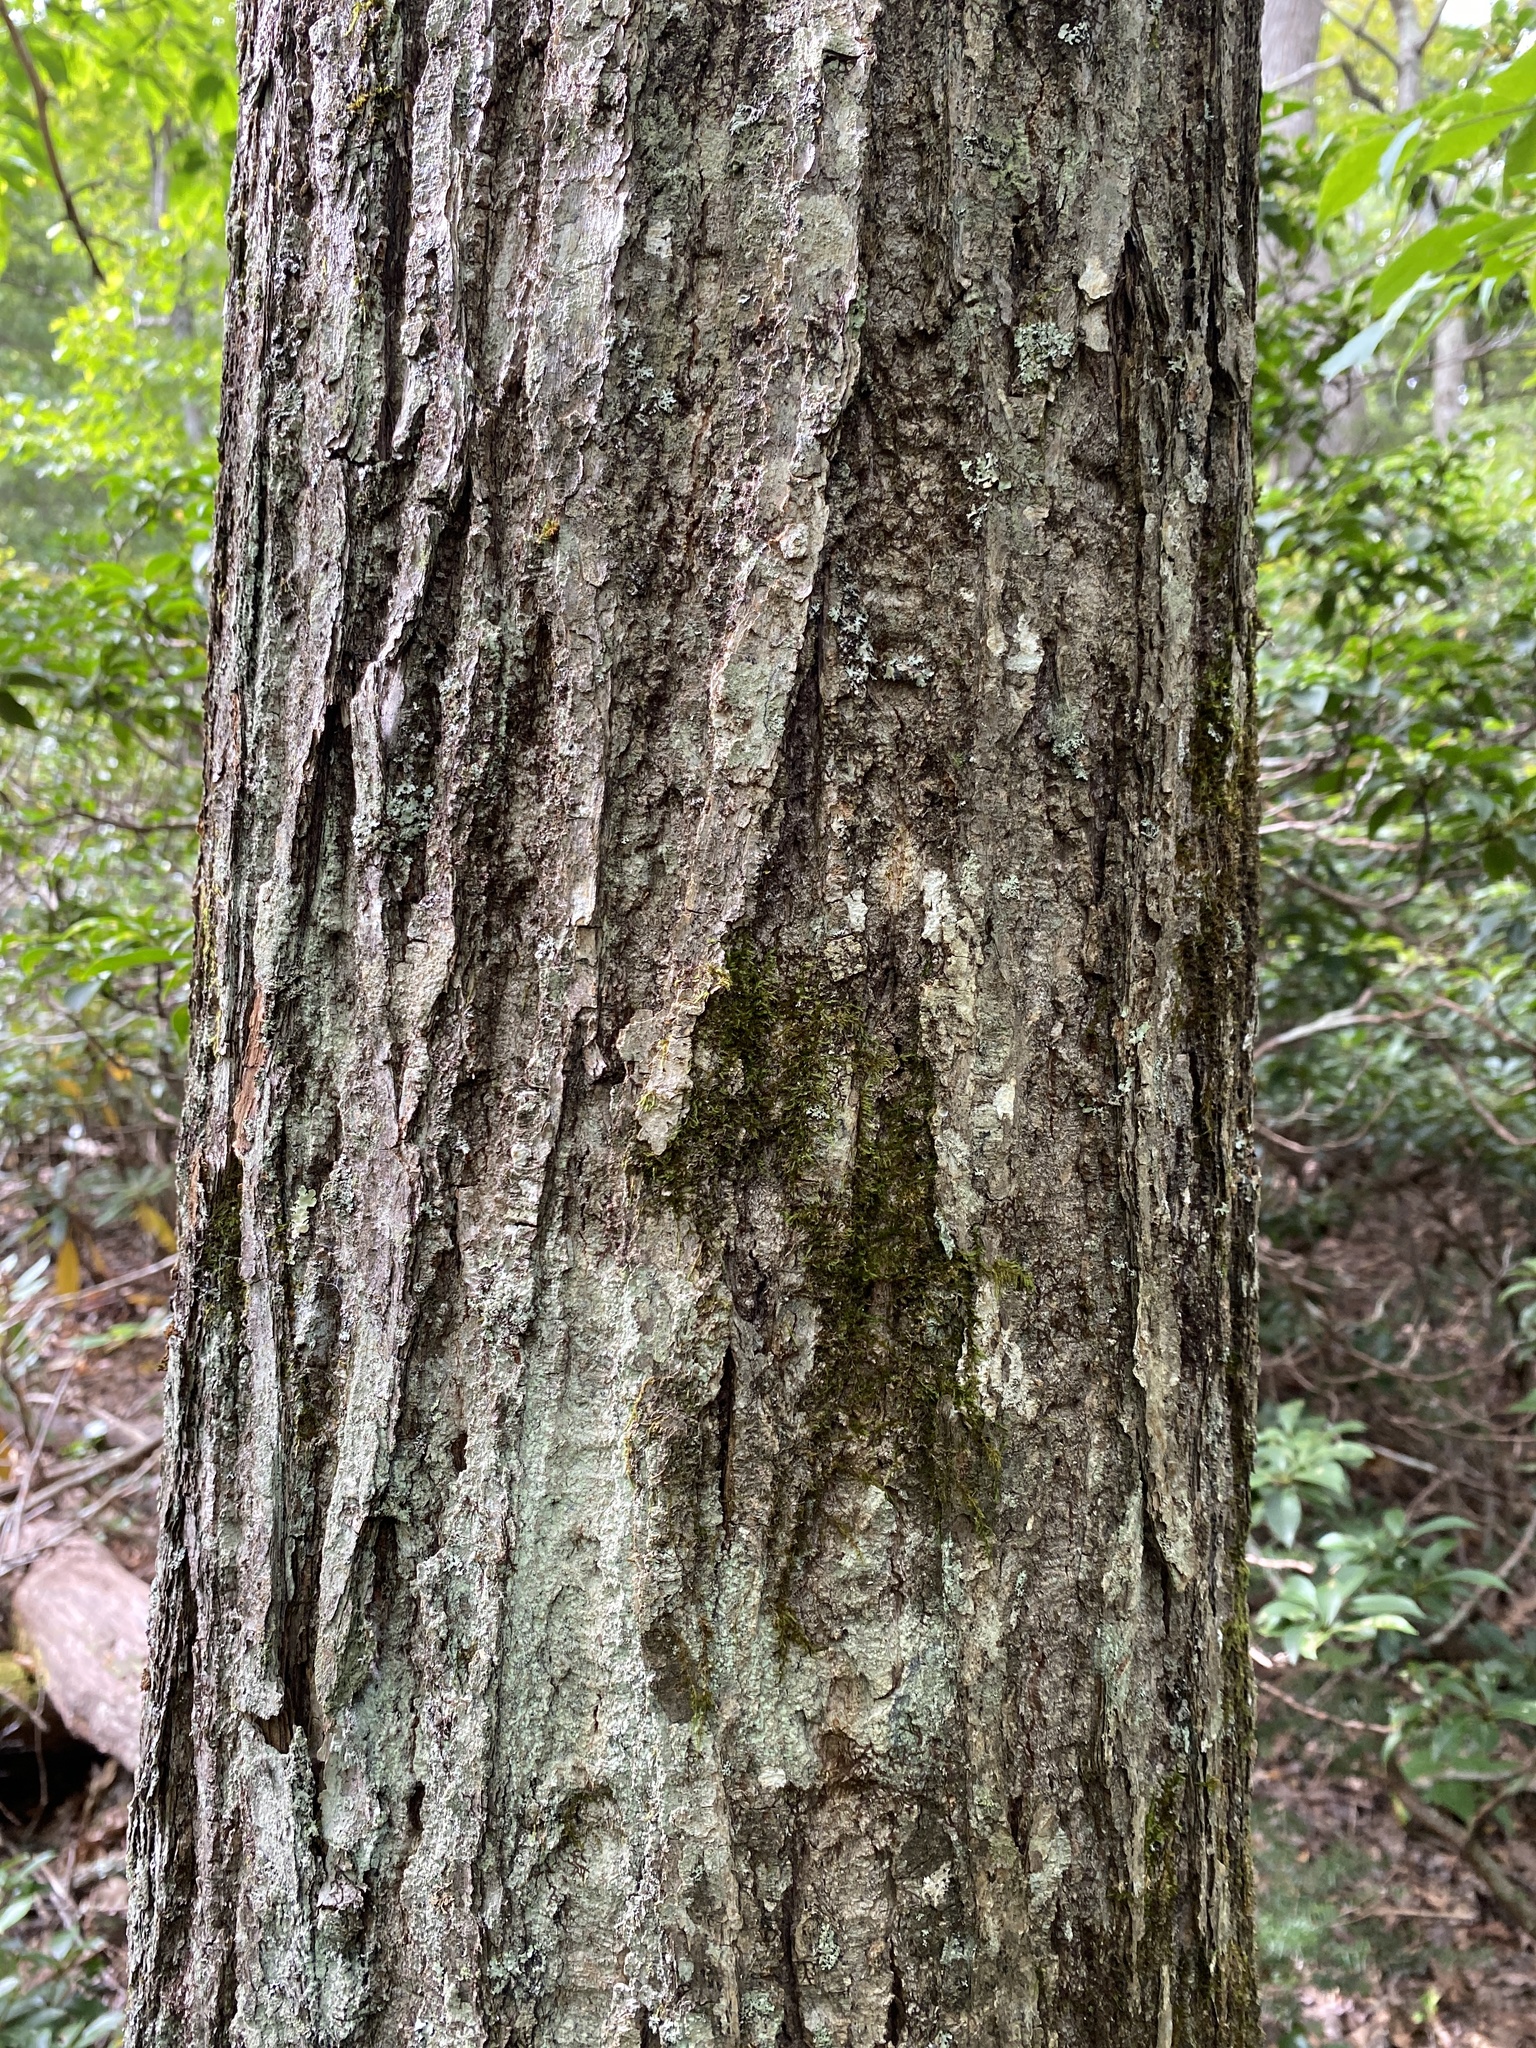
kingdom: Plantae
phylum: Tracheophyta
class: Magnoliopsida
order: Fagales
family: Fagaceae
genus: Castanea
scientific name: Castanea dentata
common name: American chestnut
